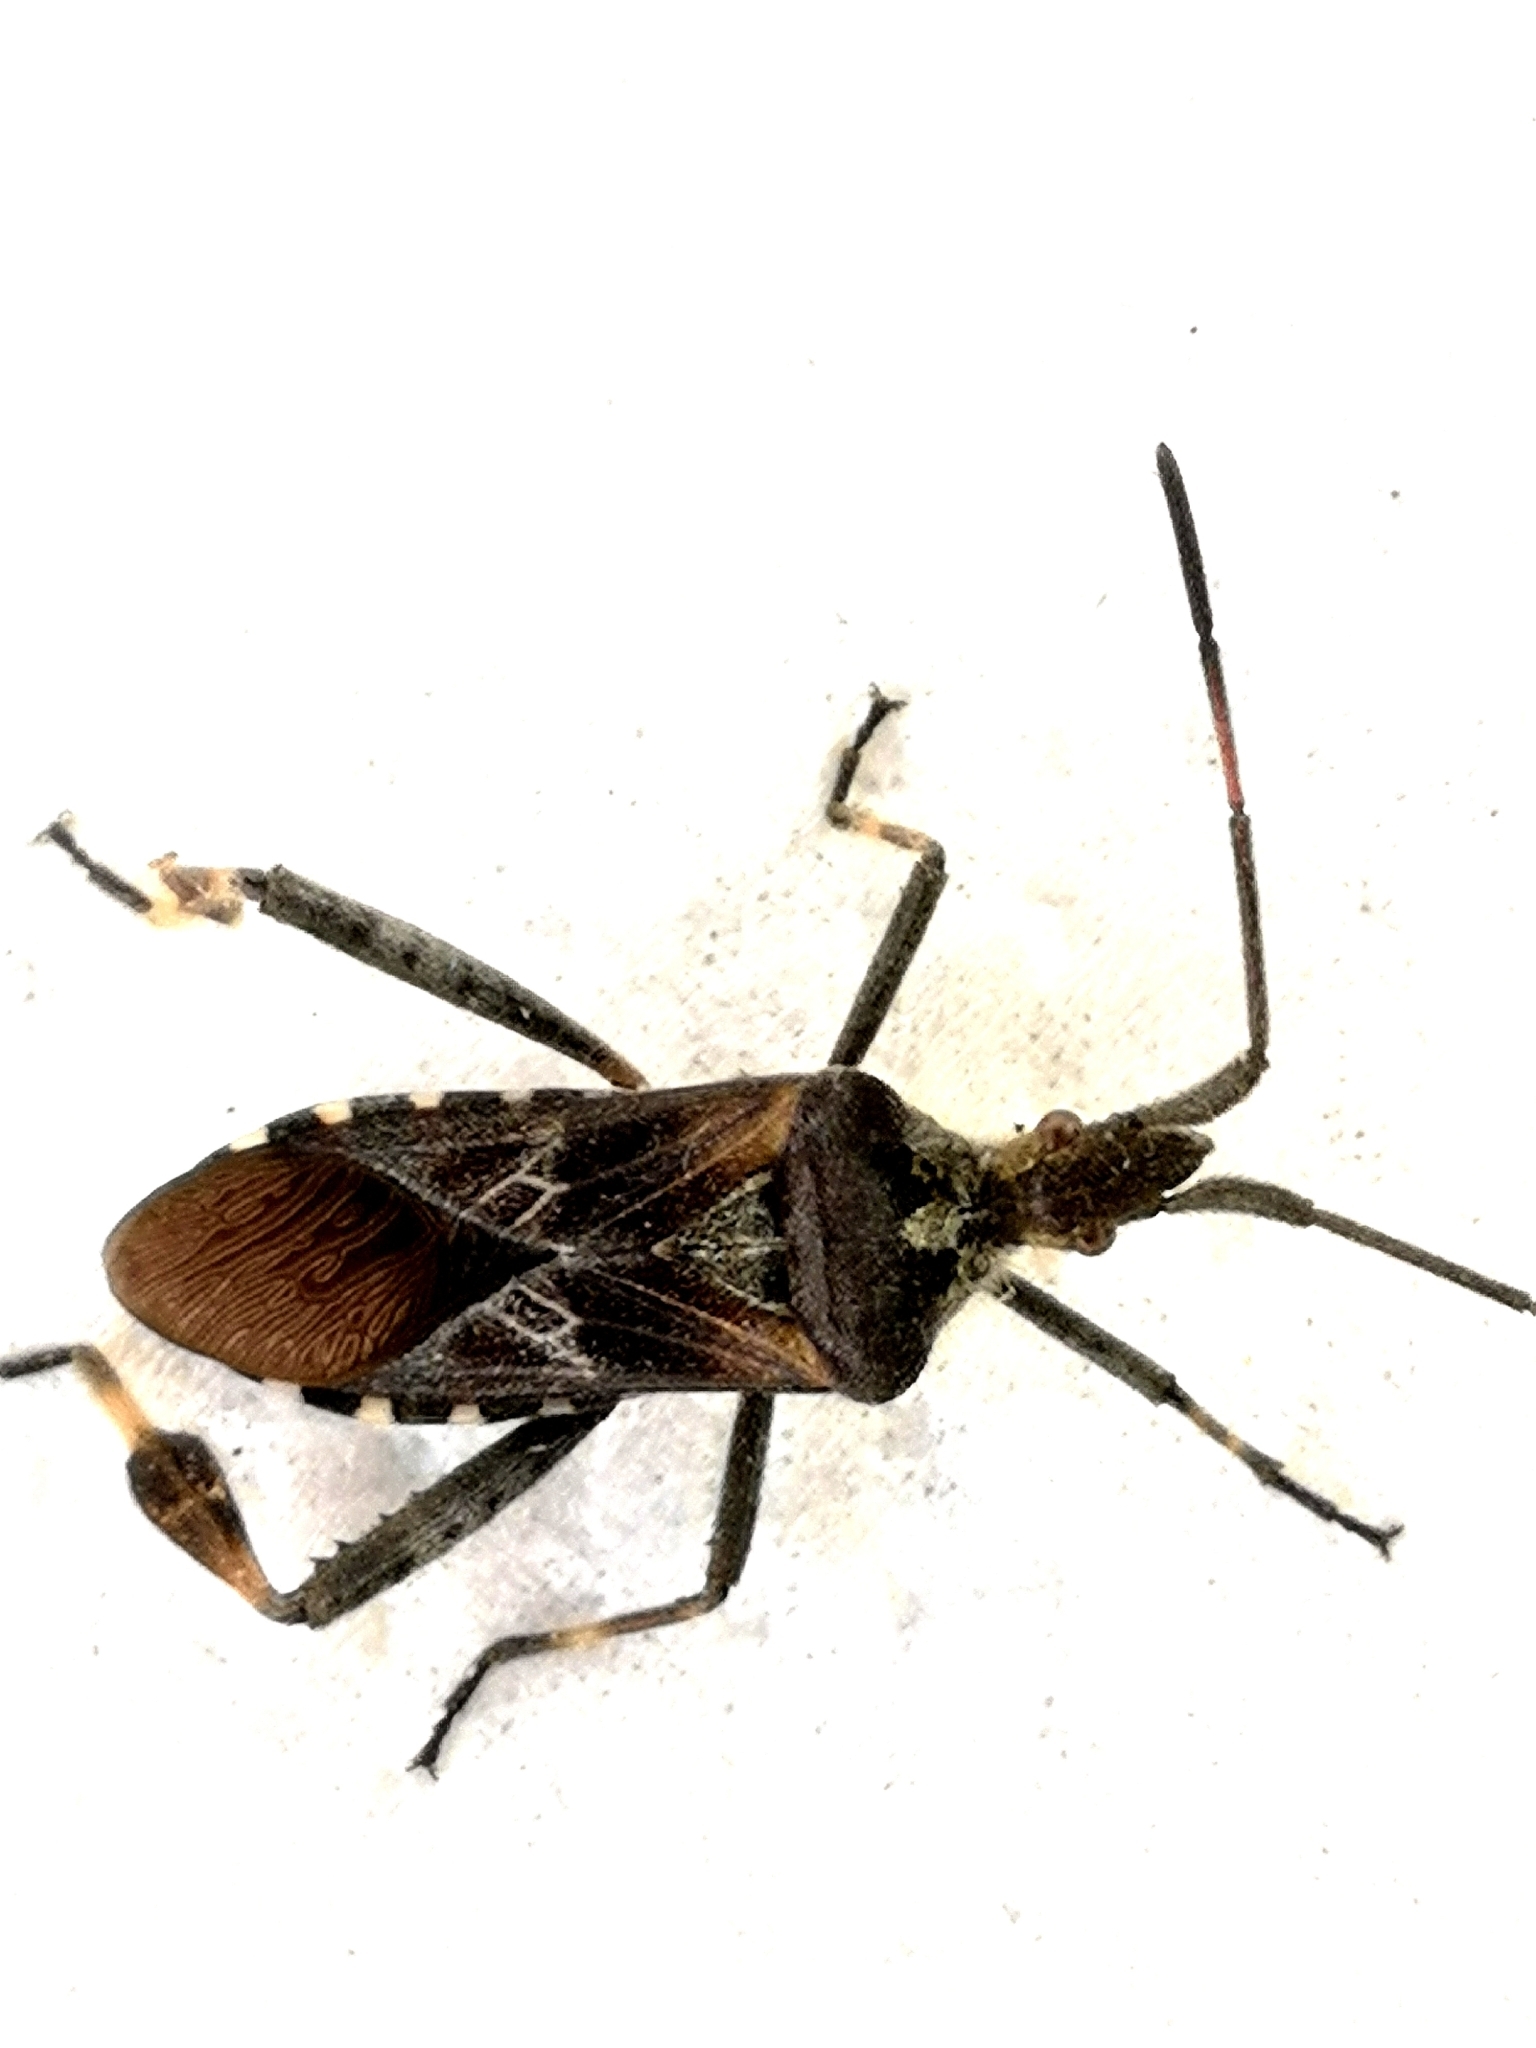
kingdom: Animalia
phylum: Arthropoda
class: Insecta
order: Hemiptera
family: Coreidae
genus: Leptoglossus
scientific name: Leptoglossus occidentalis
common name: Western conifer-seed bug
